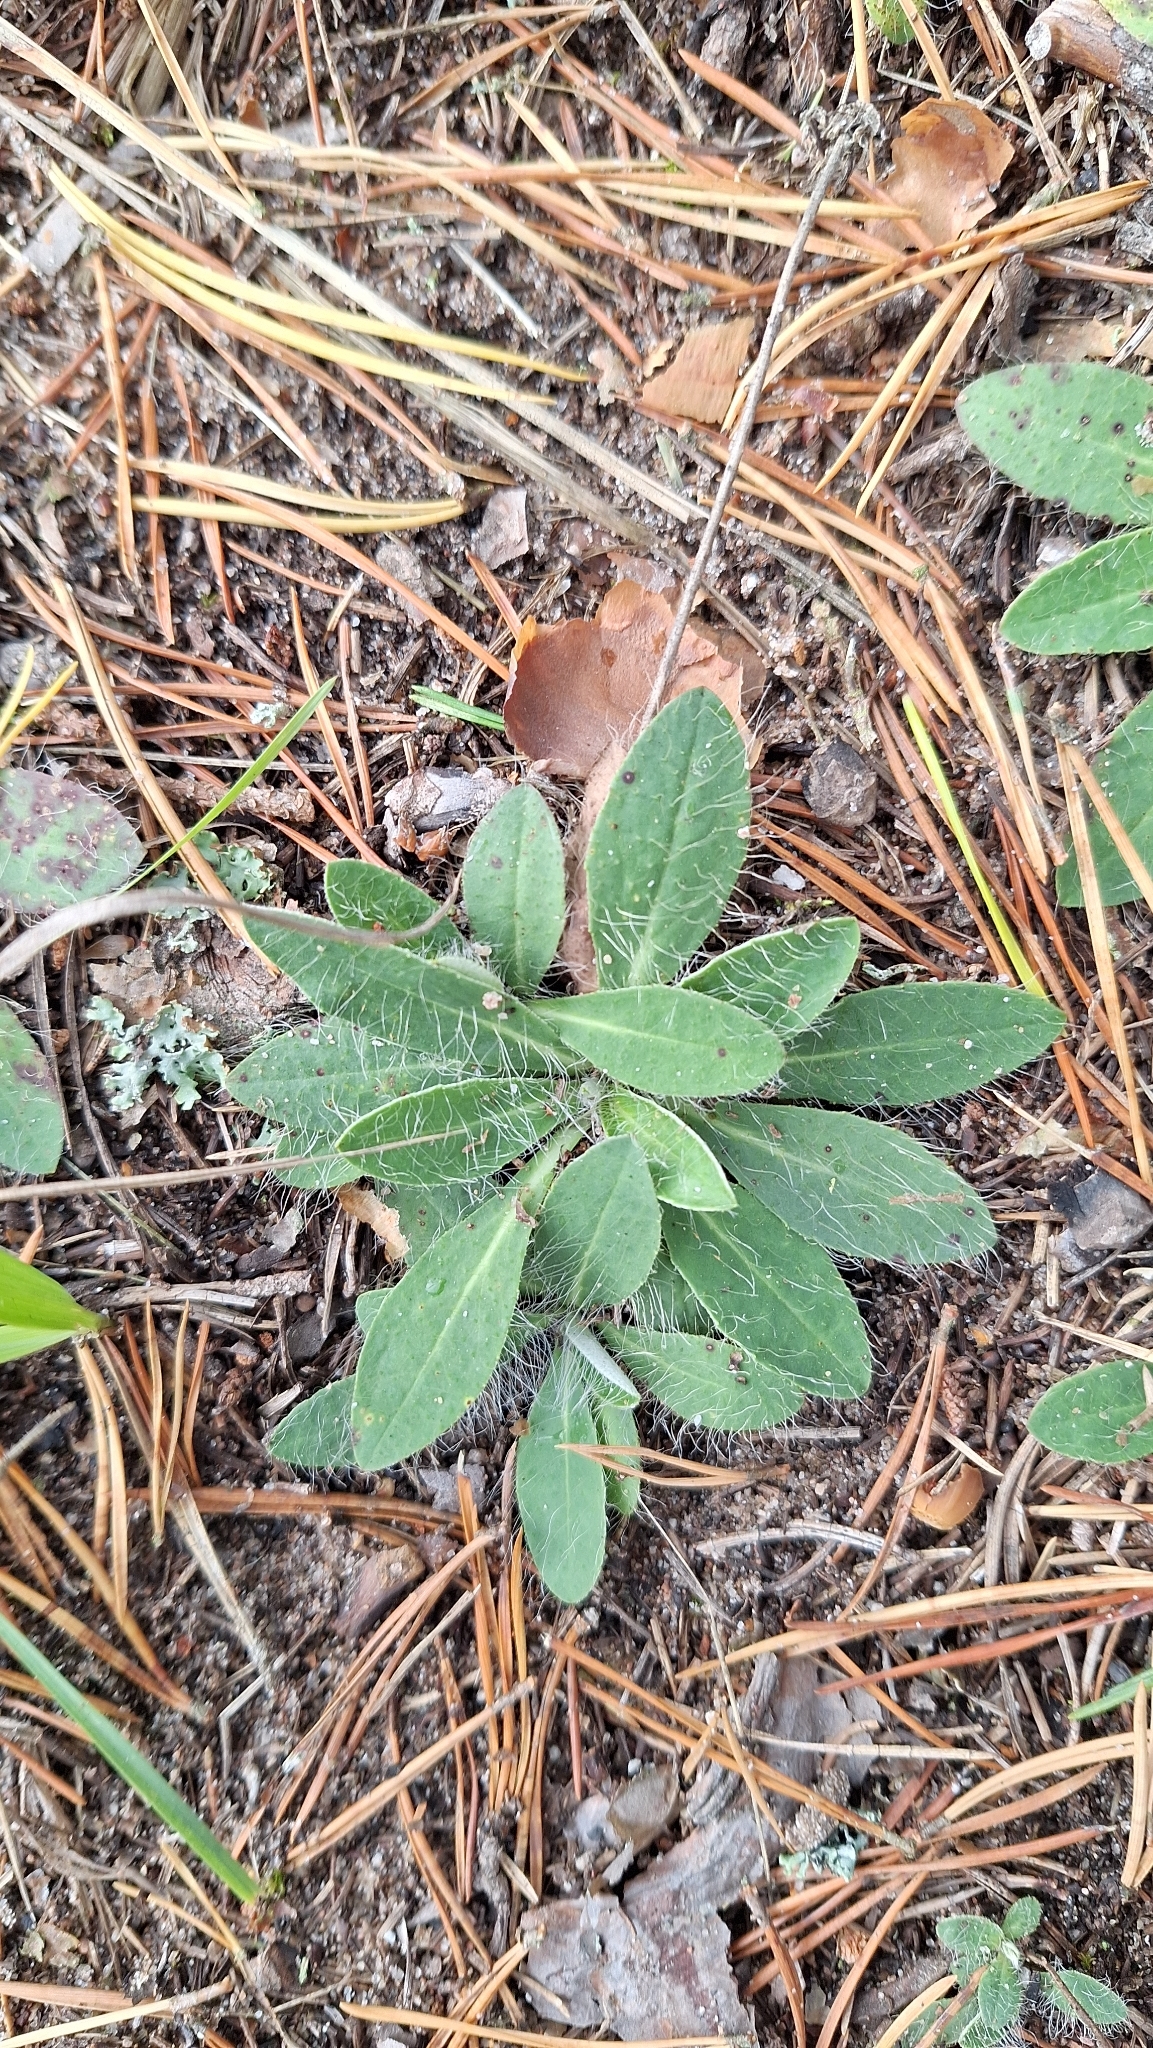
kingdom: Plantae
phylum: Tracheophyta
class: Magnoliopsida
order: Asterales
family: Asteraceae
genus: Pilosella
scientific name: Pilosella officinarum
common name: Mouse-ear hawkweed
